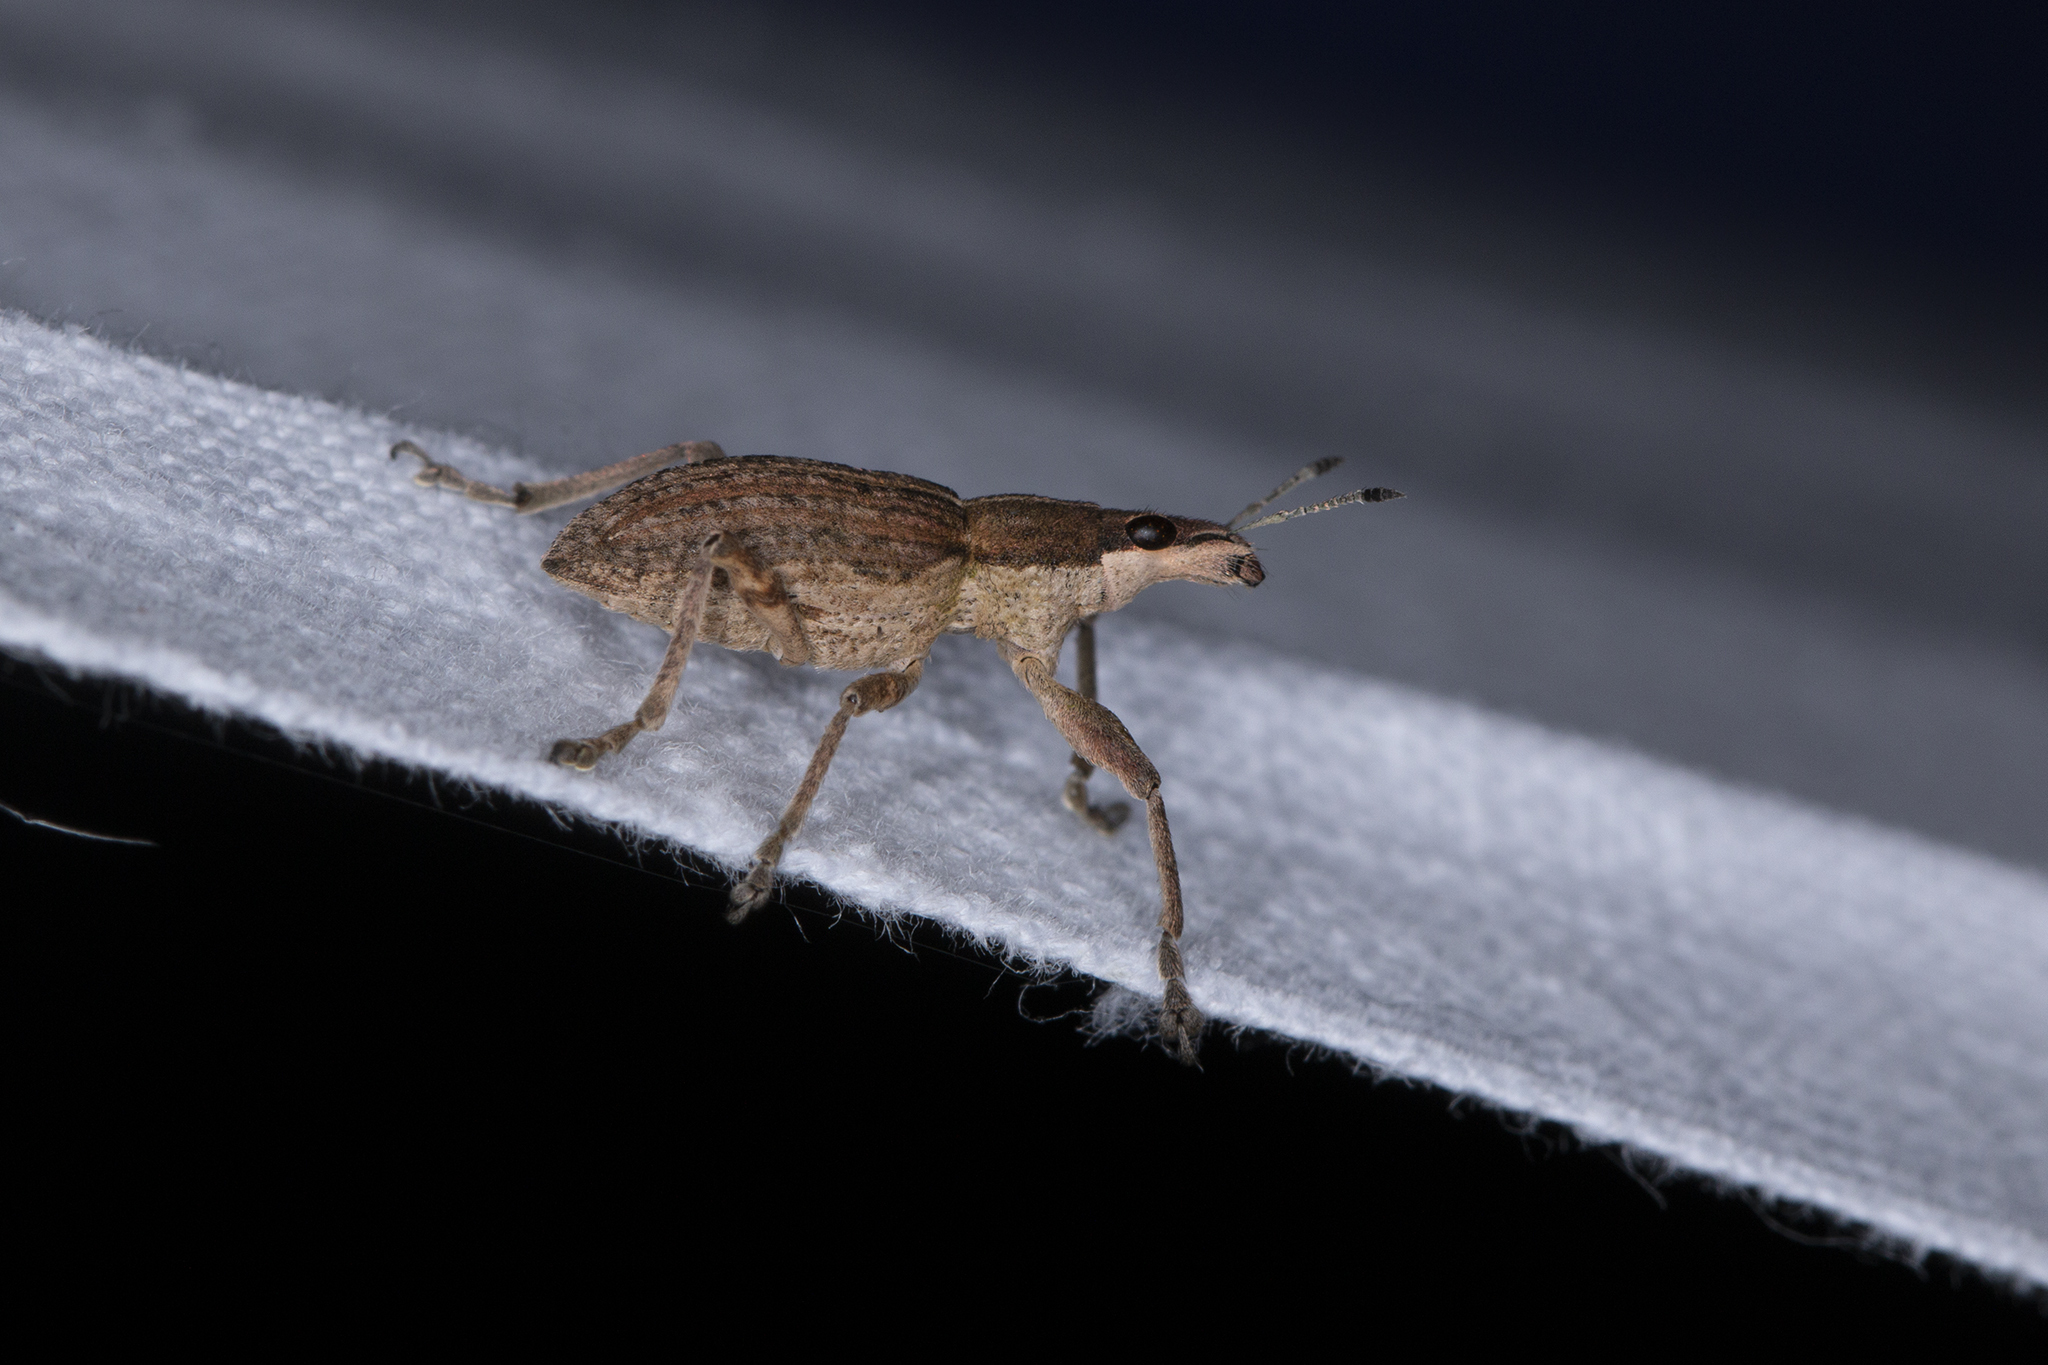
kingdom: Animalia
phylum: Arthropoda
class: Insecta
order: Coleoptera
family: Curculionidae
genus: Charagmus
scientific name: Charagmus gressorius
